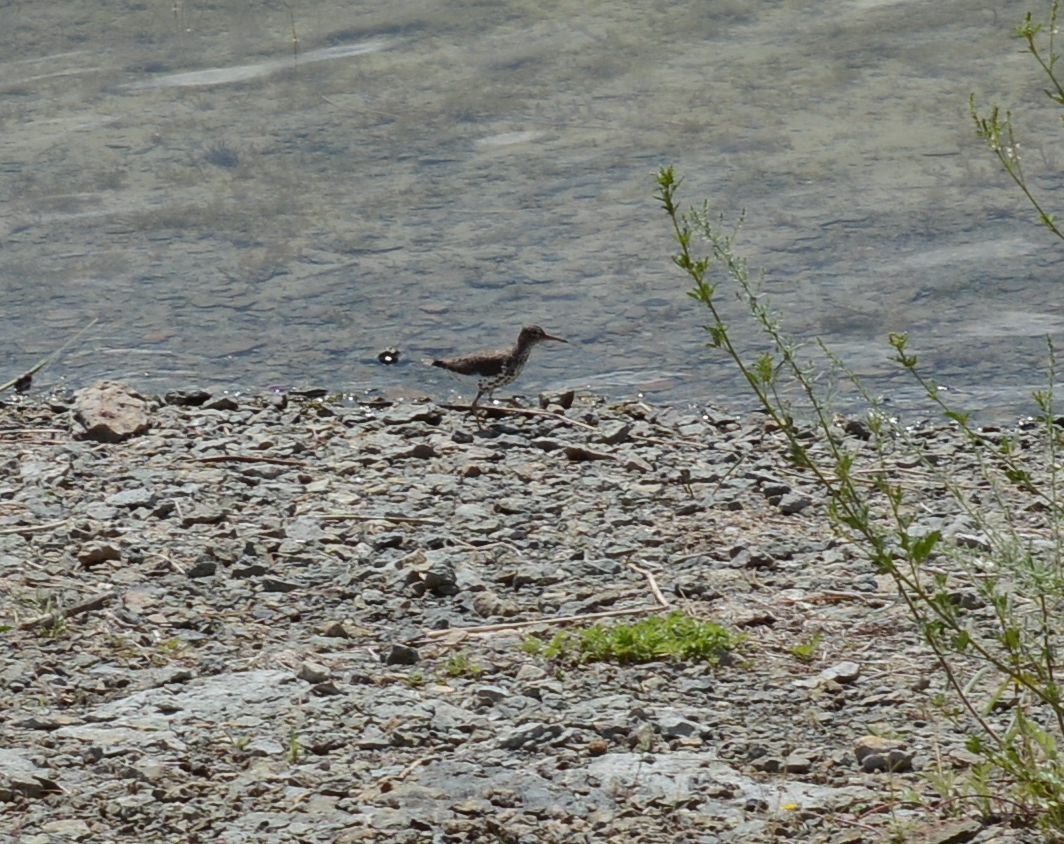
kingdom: Animalia
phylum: Chordata
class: Aves
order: Charadriiformes
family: Scolopacidae
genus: Actitis
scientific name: Actitis macularius
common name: Spotted sandpiper
